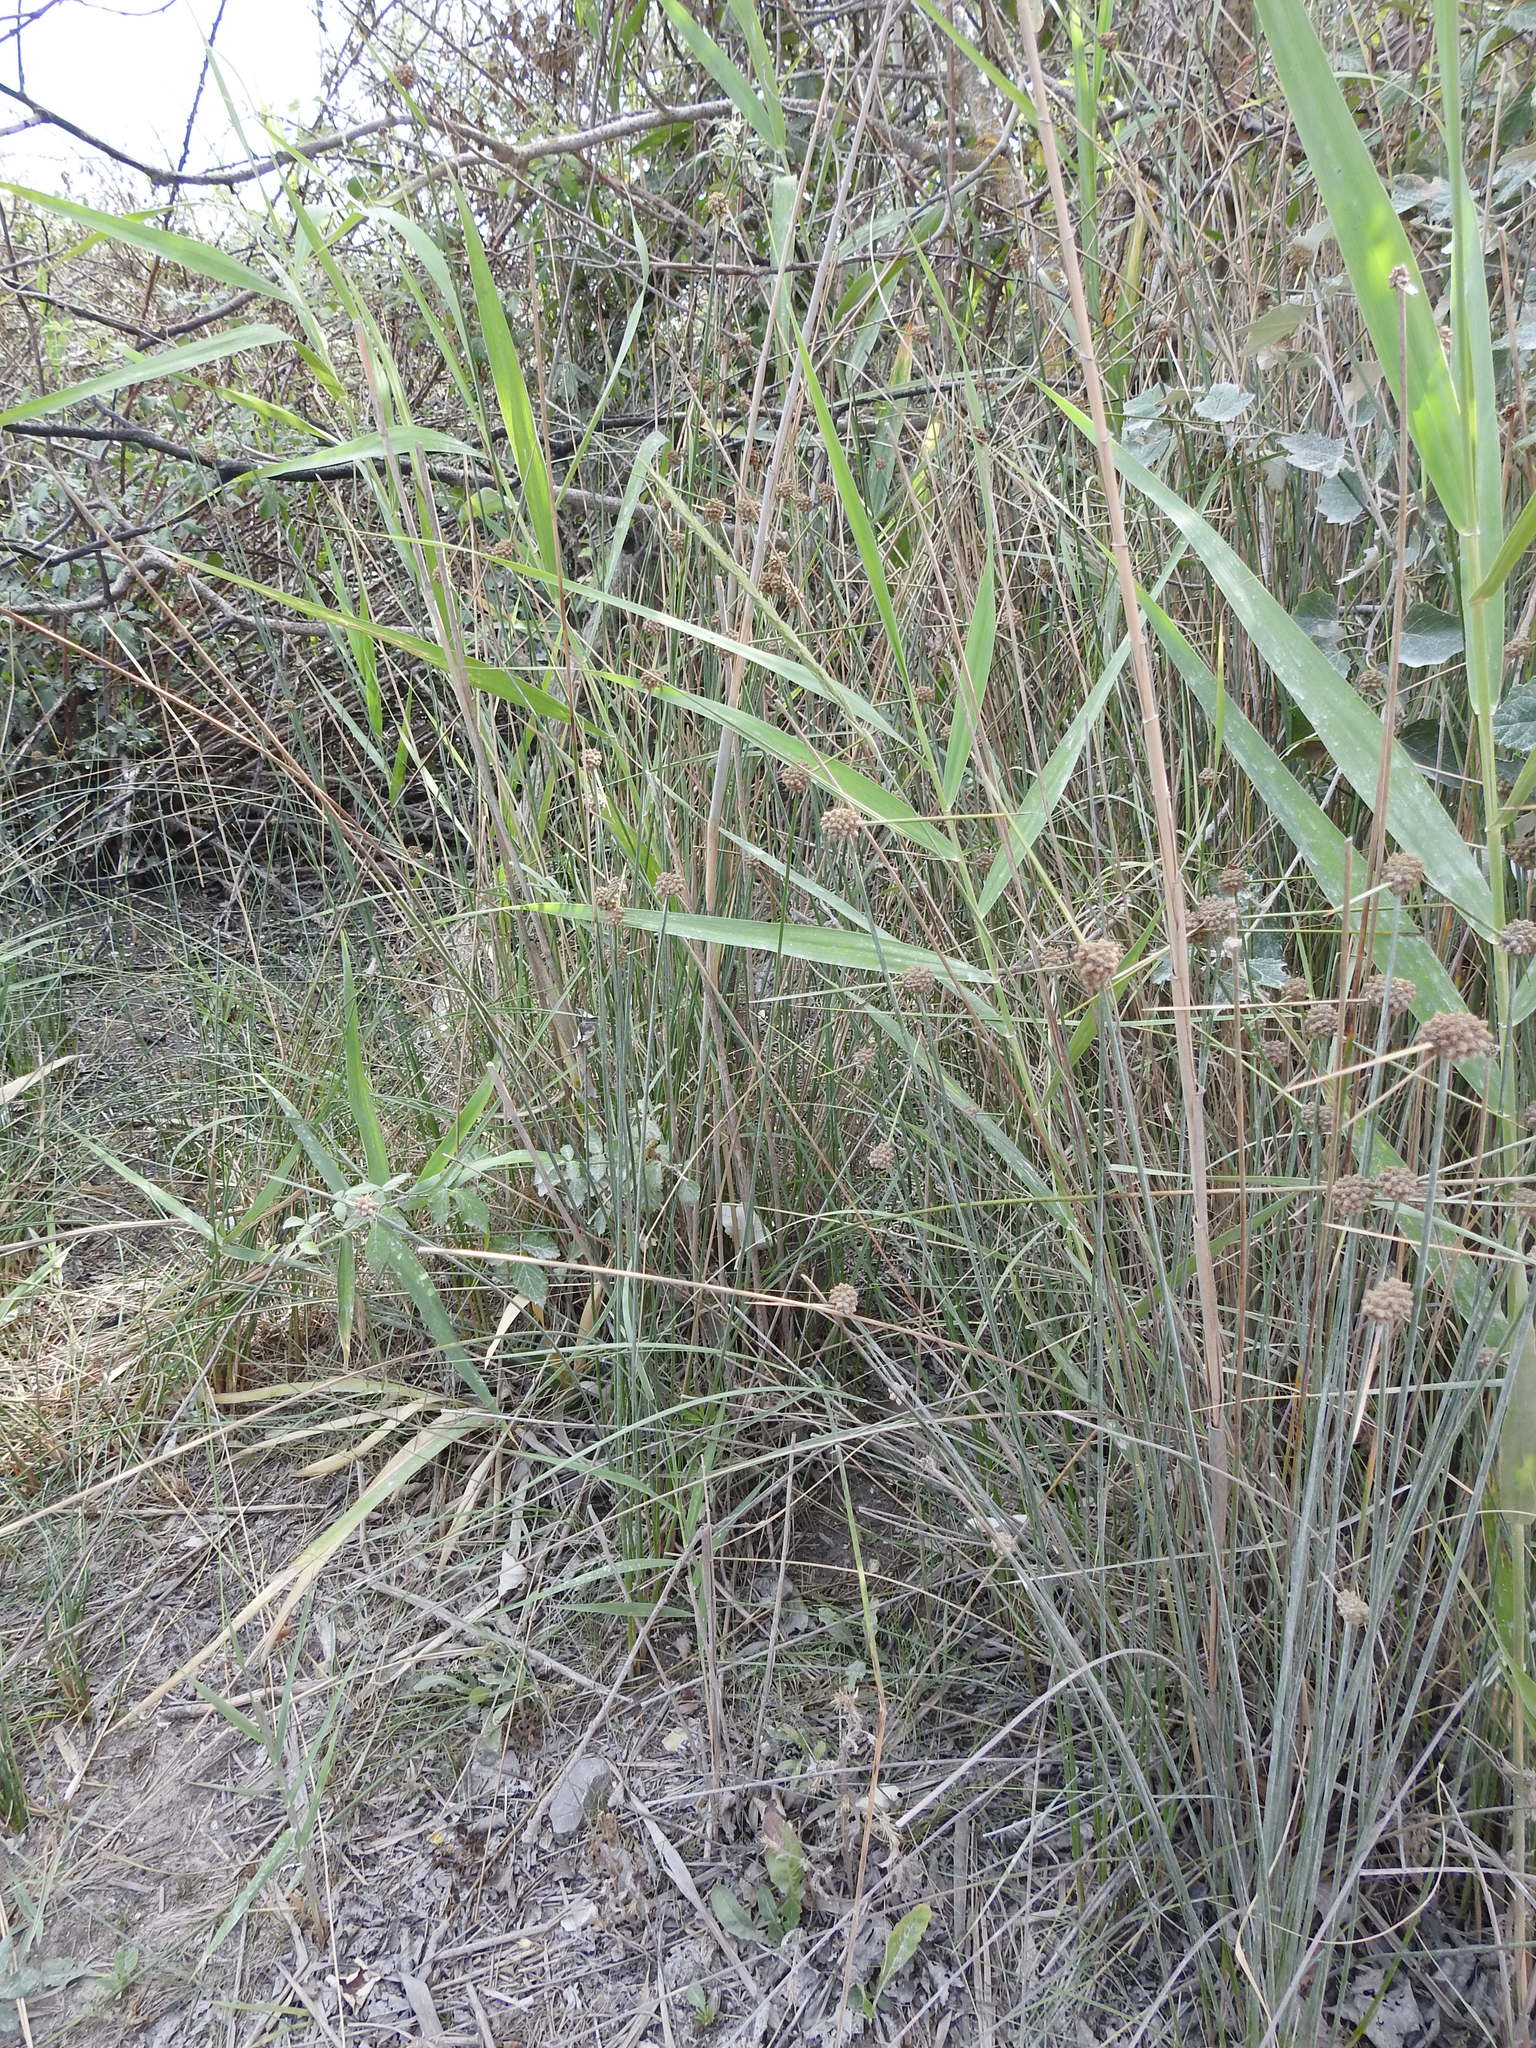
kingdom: Plantae
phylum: Tracheophyta
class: Liliopsida
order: Poales
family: Cyperaceae
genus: Scirpoides
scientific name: Scirpoides holoschoenus
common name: Round-headed club-rush
